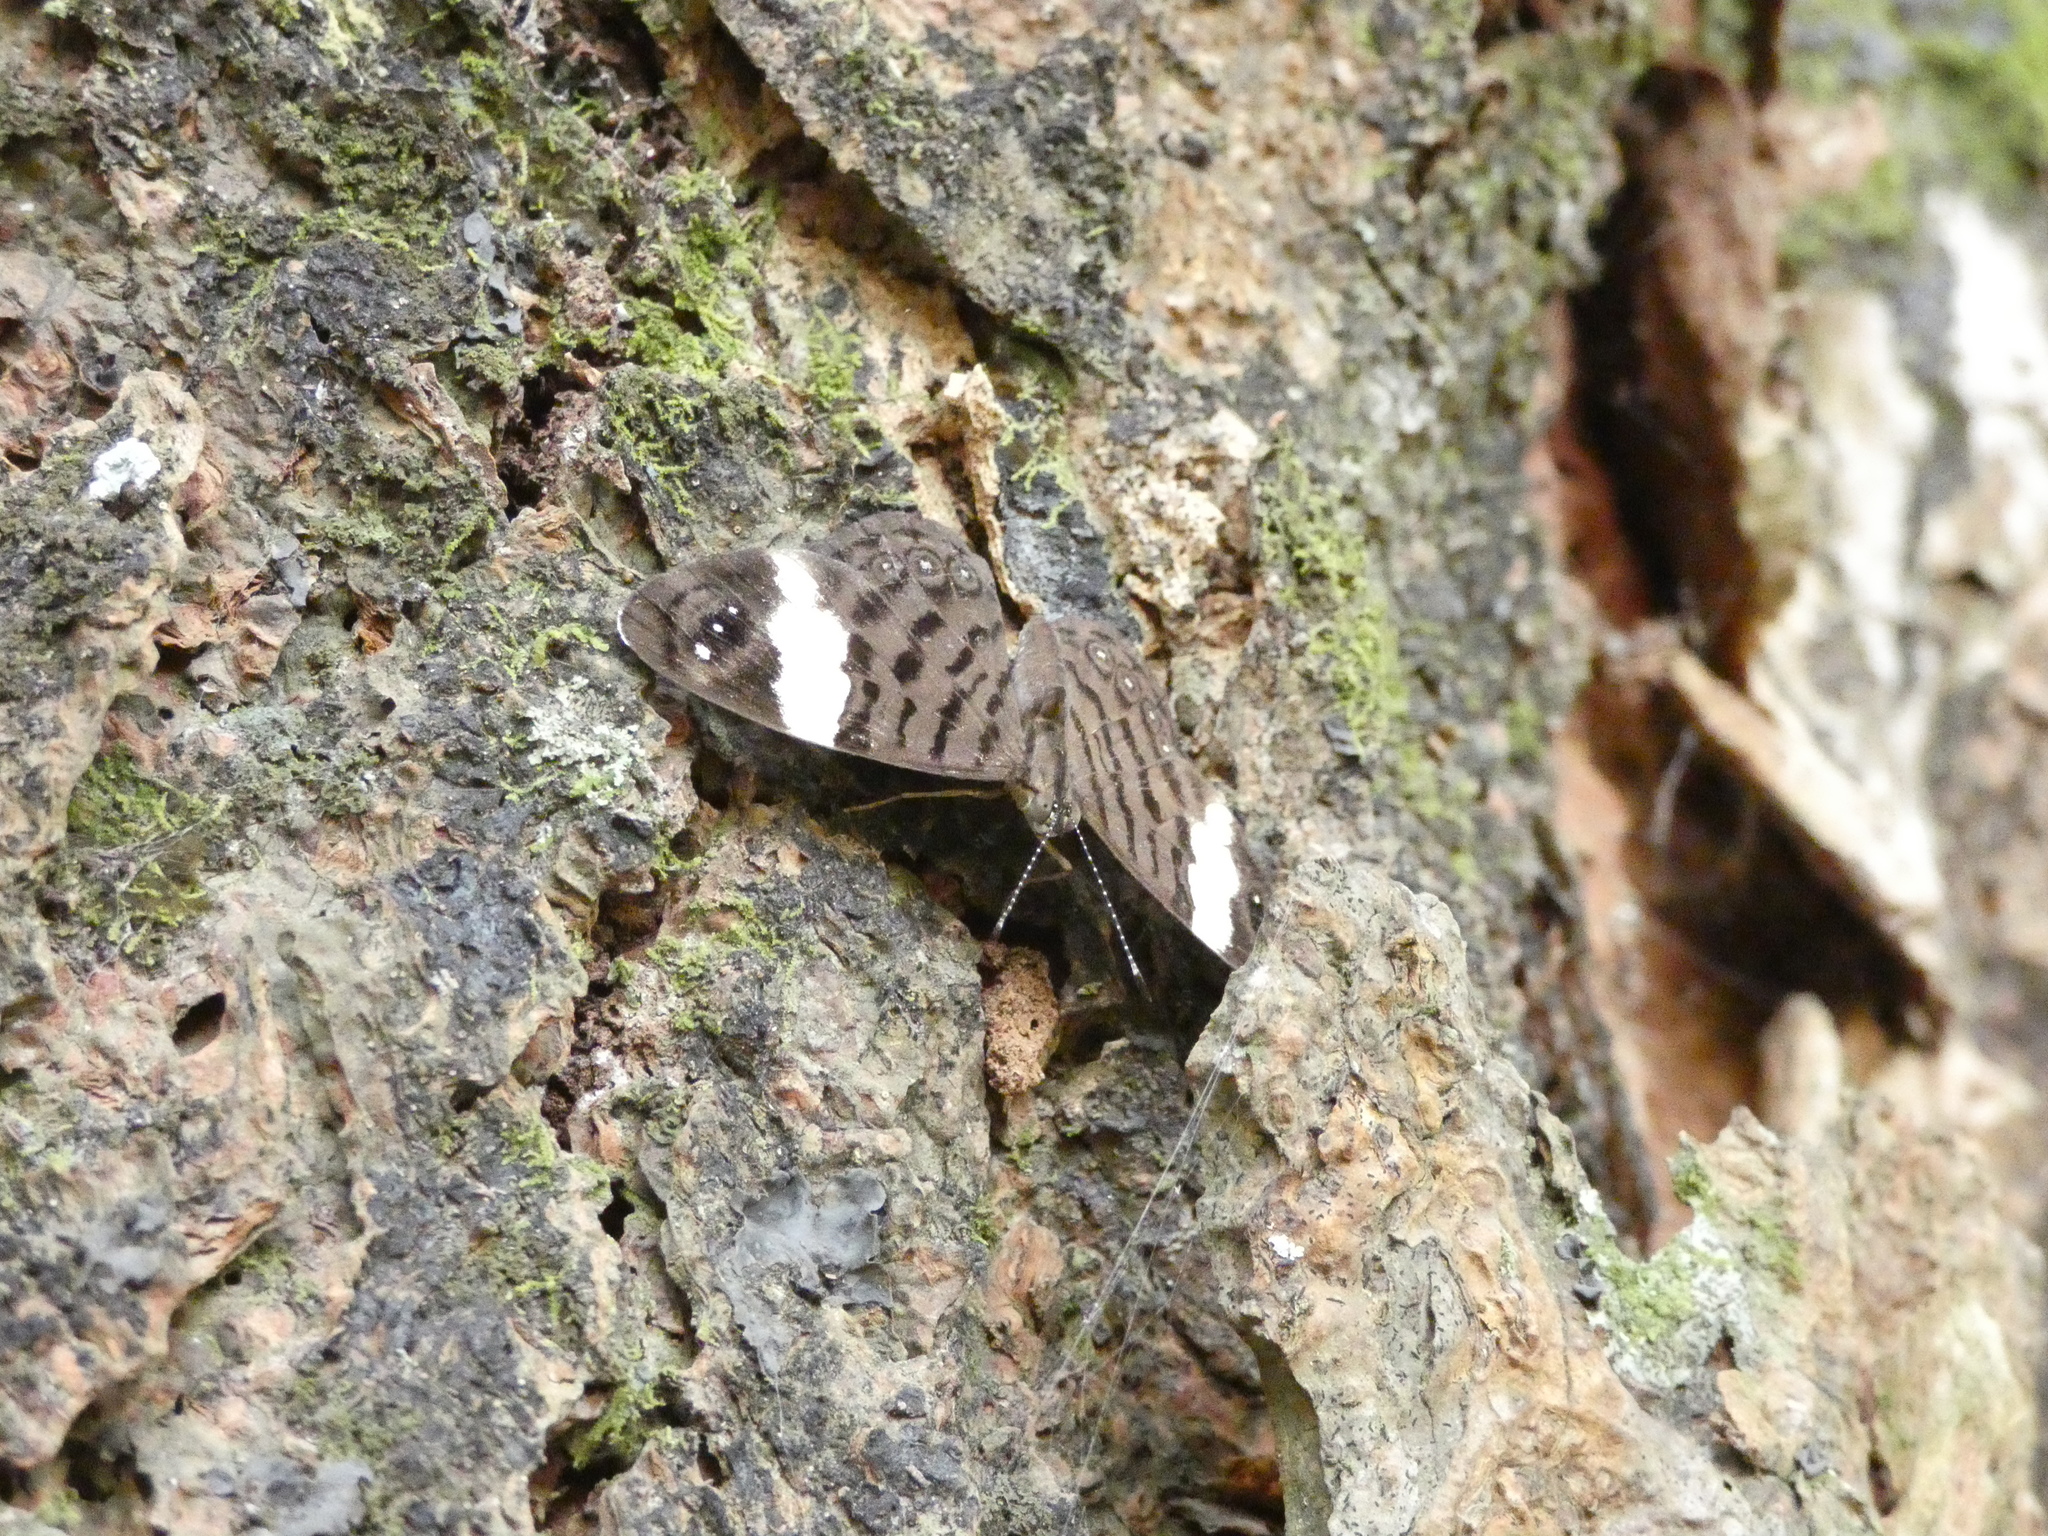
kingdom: Animalia
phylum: Arthropoda
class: Insecta
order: Lepidoptera
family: Nymphalidae
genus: Ectima
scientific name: Ectima thecla
